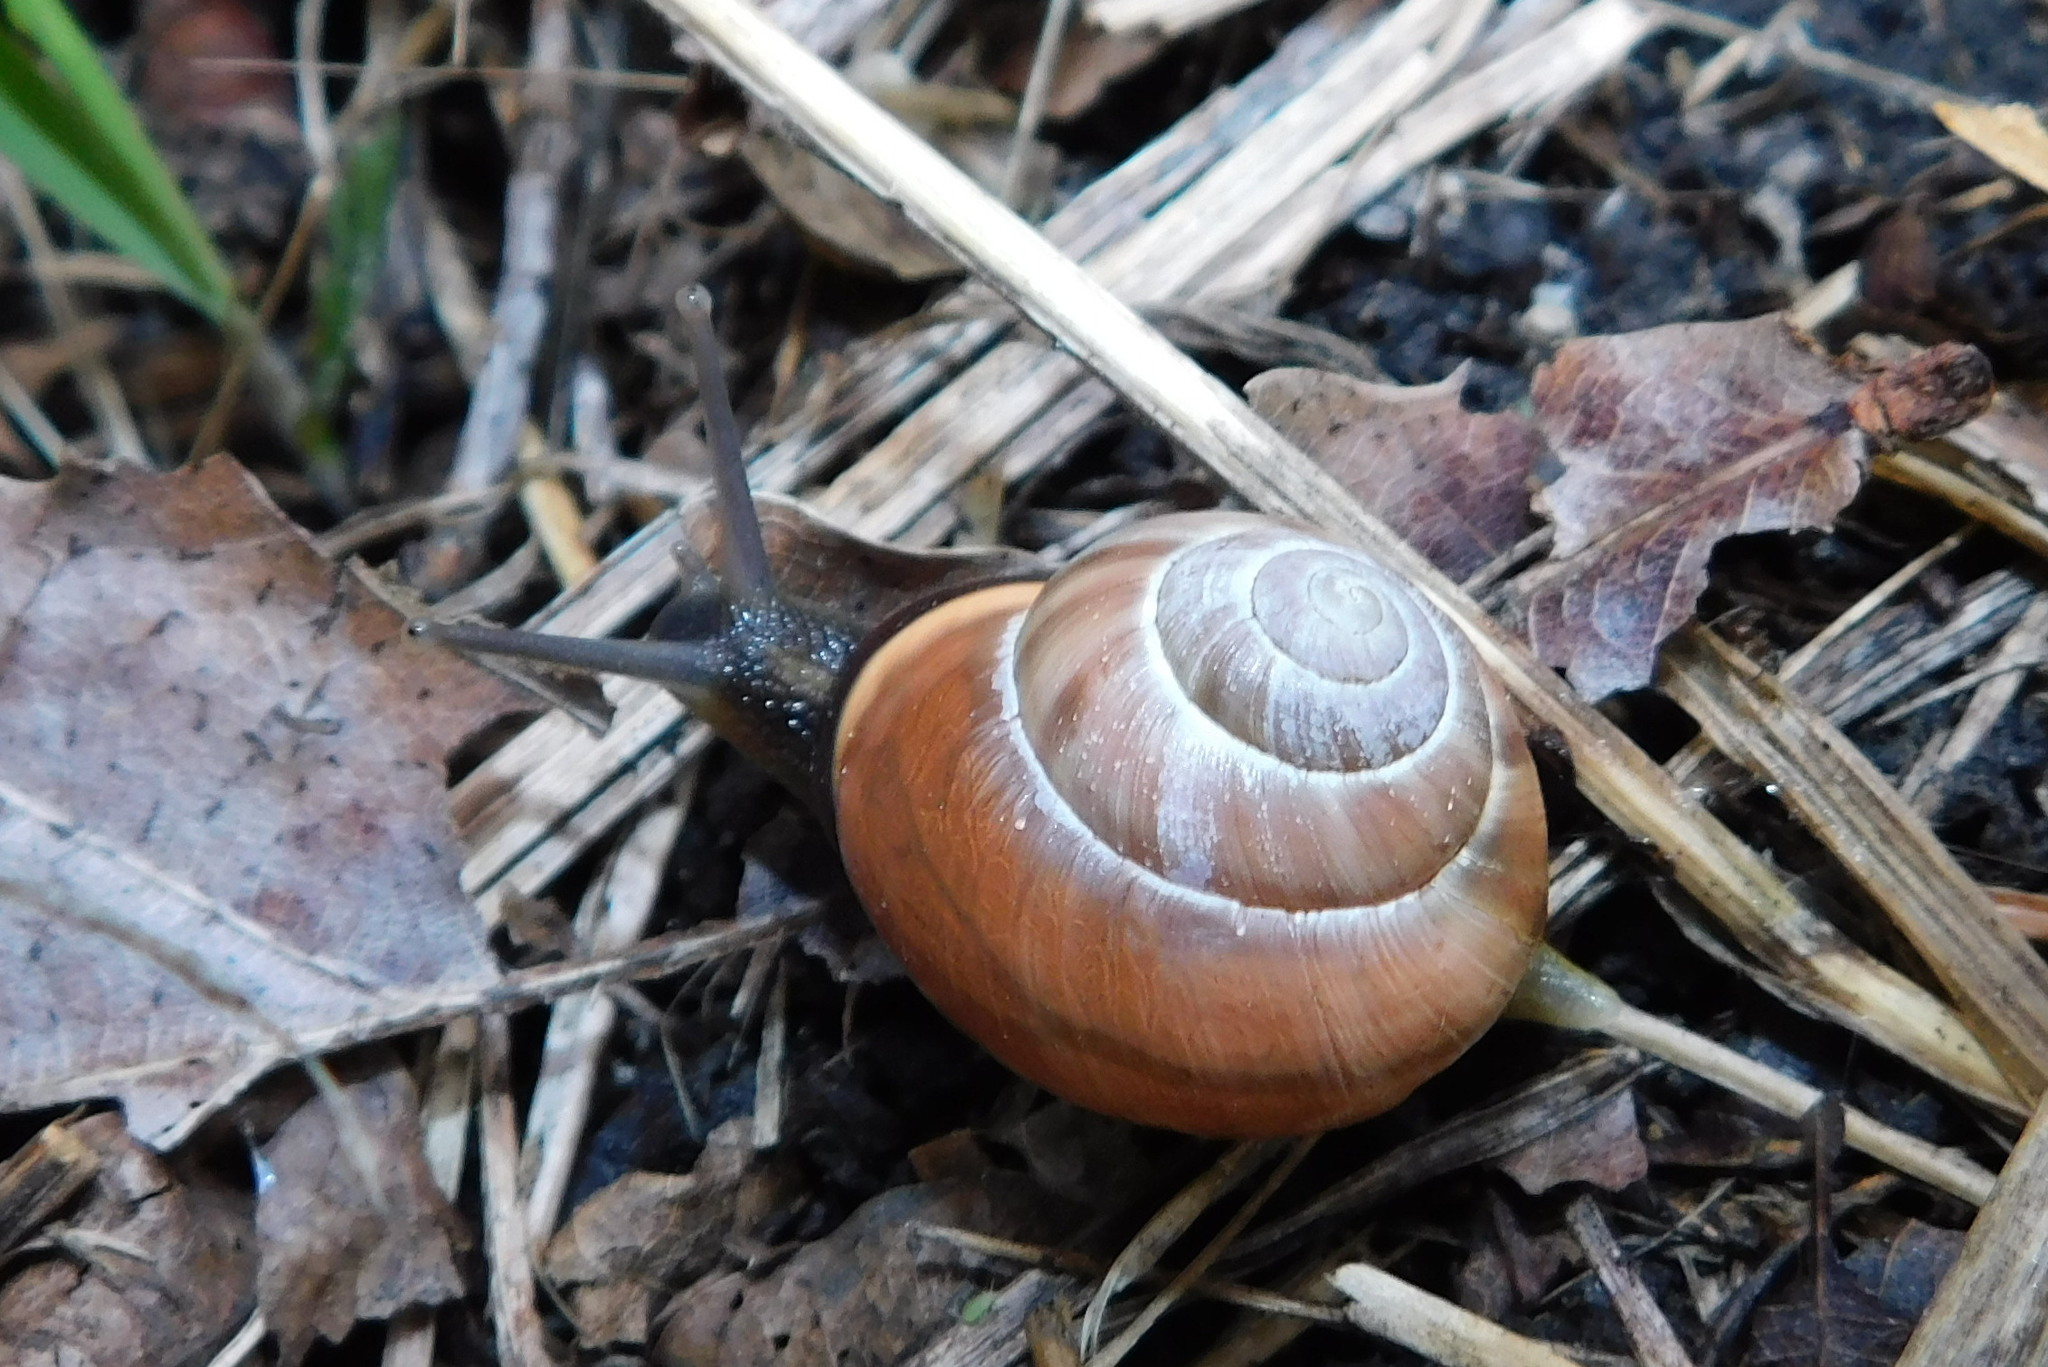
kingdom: Animalia
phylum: Mollusca
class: Gastropoda
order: Stylommatophora
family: Helicidae
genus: Cepaea
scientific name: Cepaea nemoralis
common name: Grovesnail
